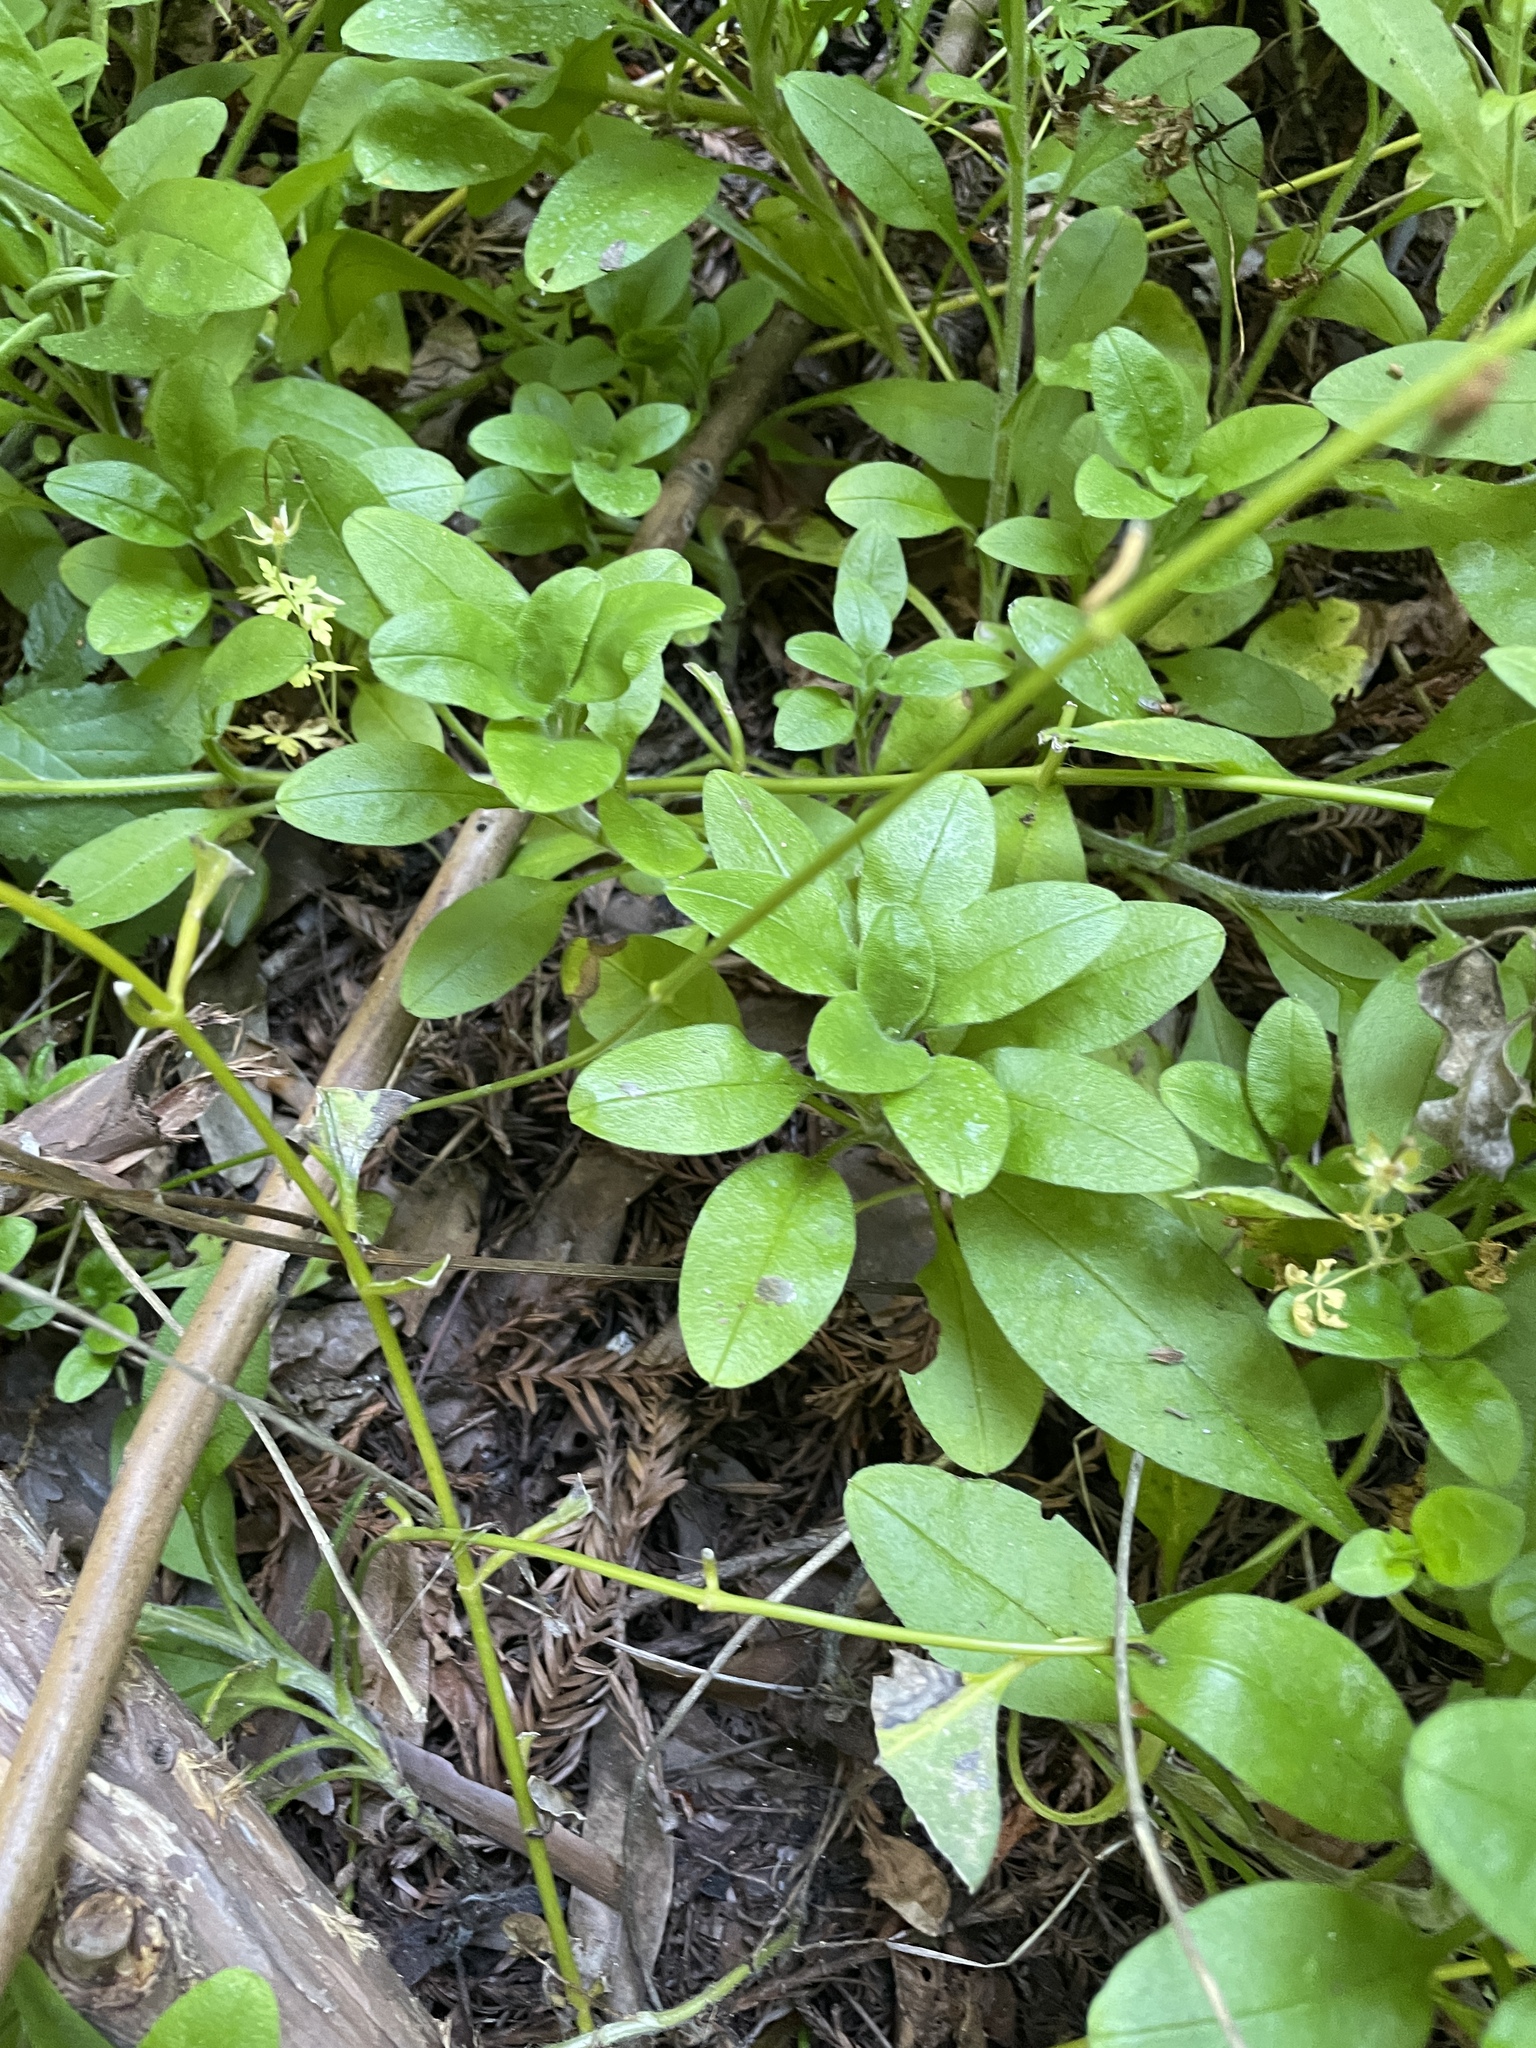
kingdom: Plantae
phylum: Tracheophyta
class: Magnoliopsida
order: Boraginales
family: Boraginaceae
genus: Myosotis
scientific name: Myosotis latifolia
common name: Broadleaf forget-me-not
